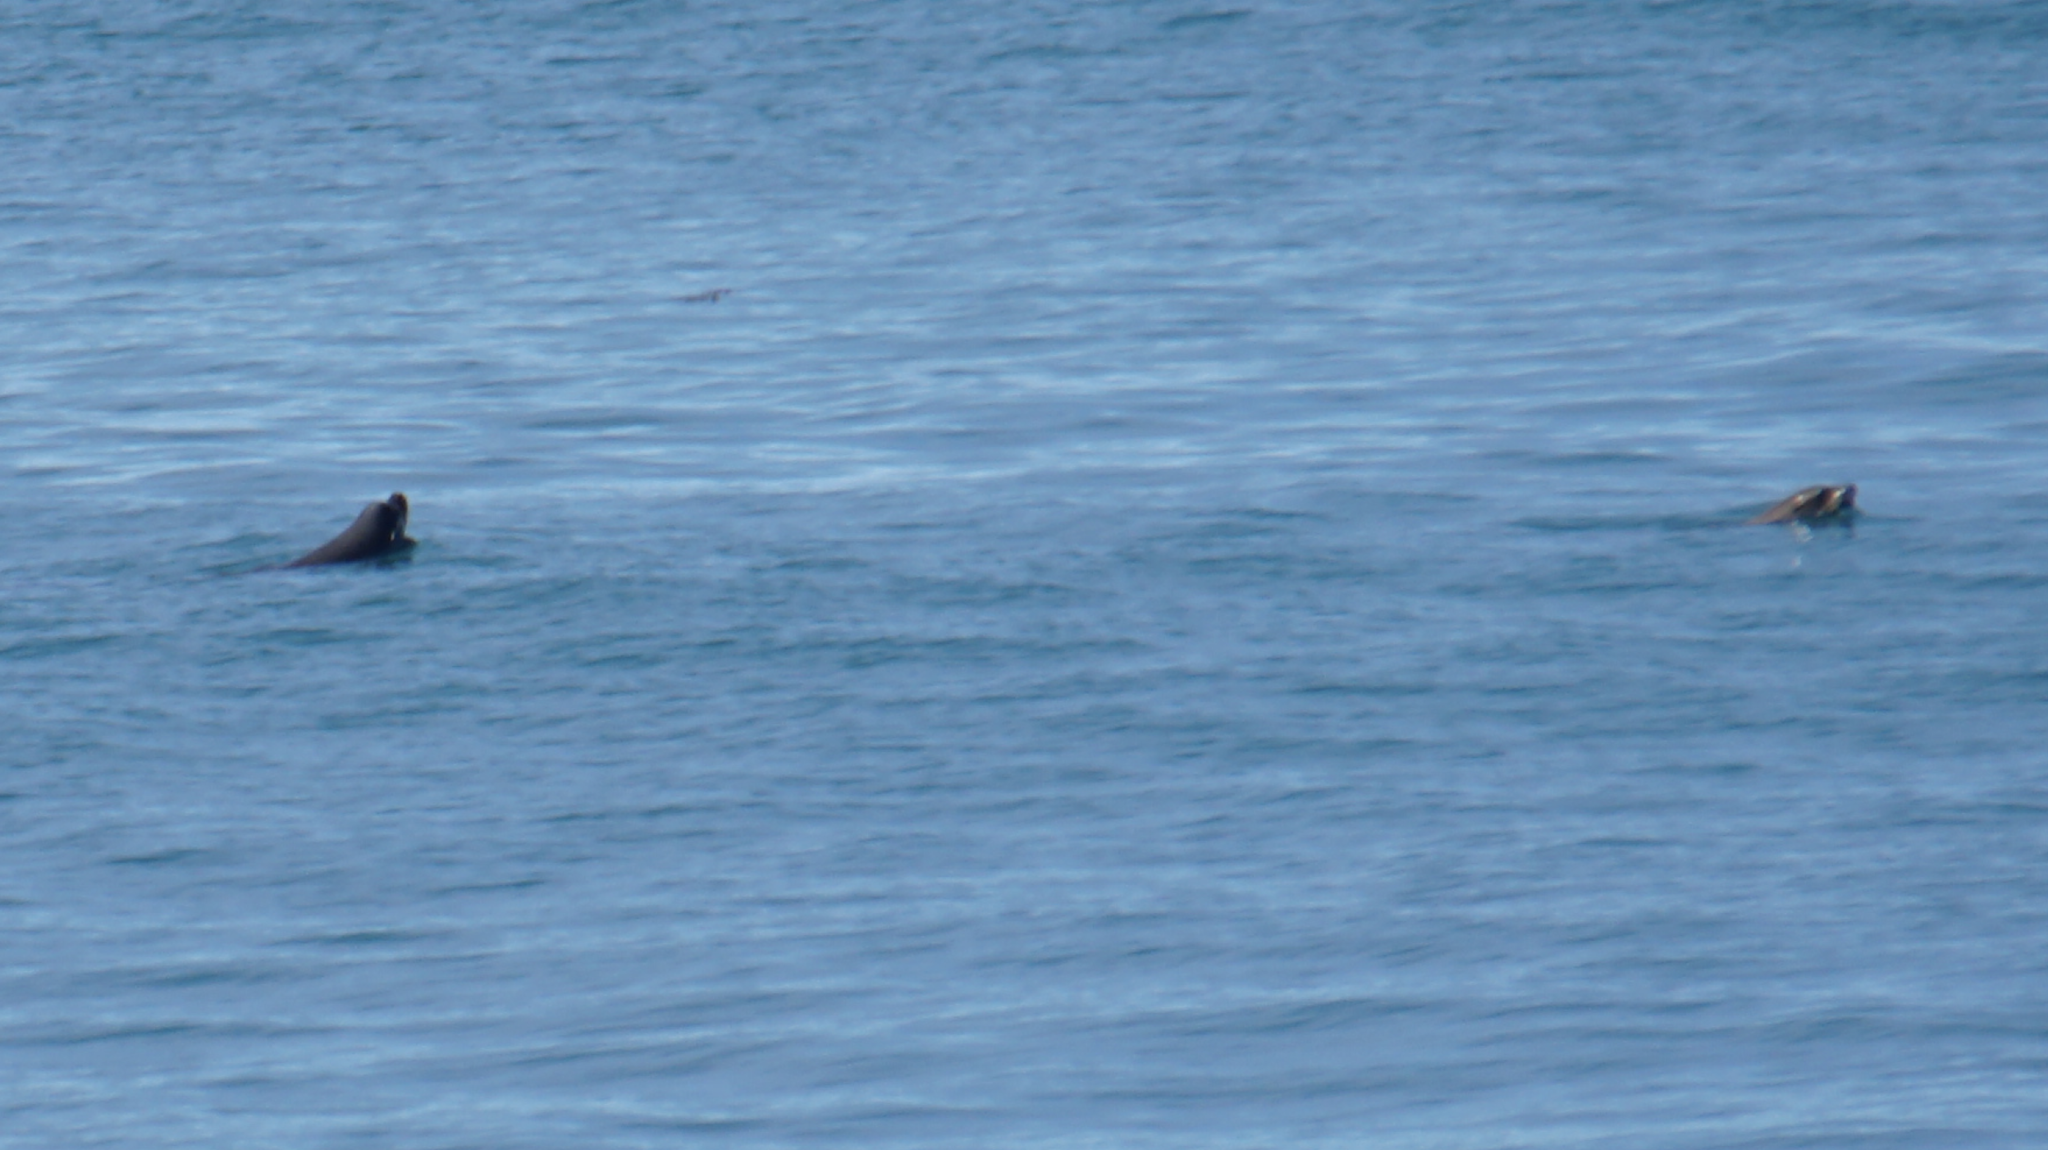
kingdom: Animalia
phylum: Chordata
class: Mammalia
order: Carnivora
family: Otariidae
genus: Zalophus
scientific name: Zalophus californianus
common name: California sea lion
